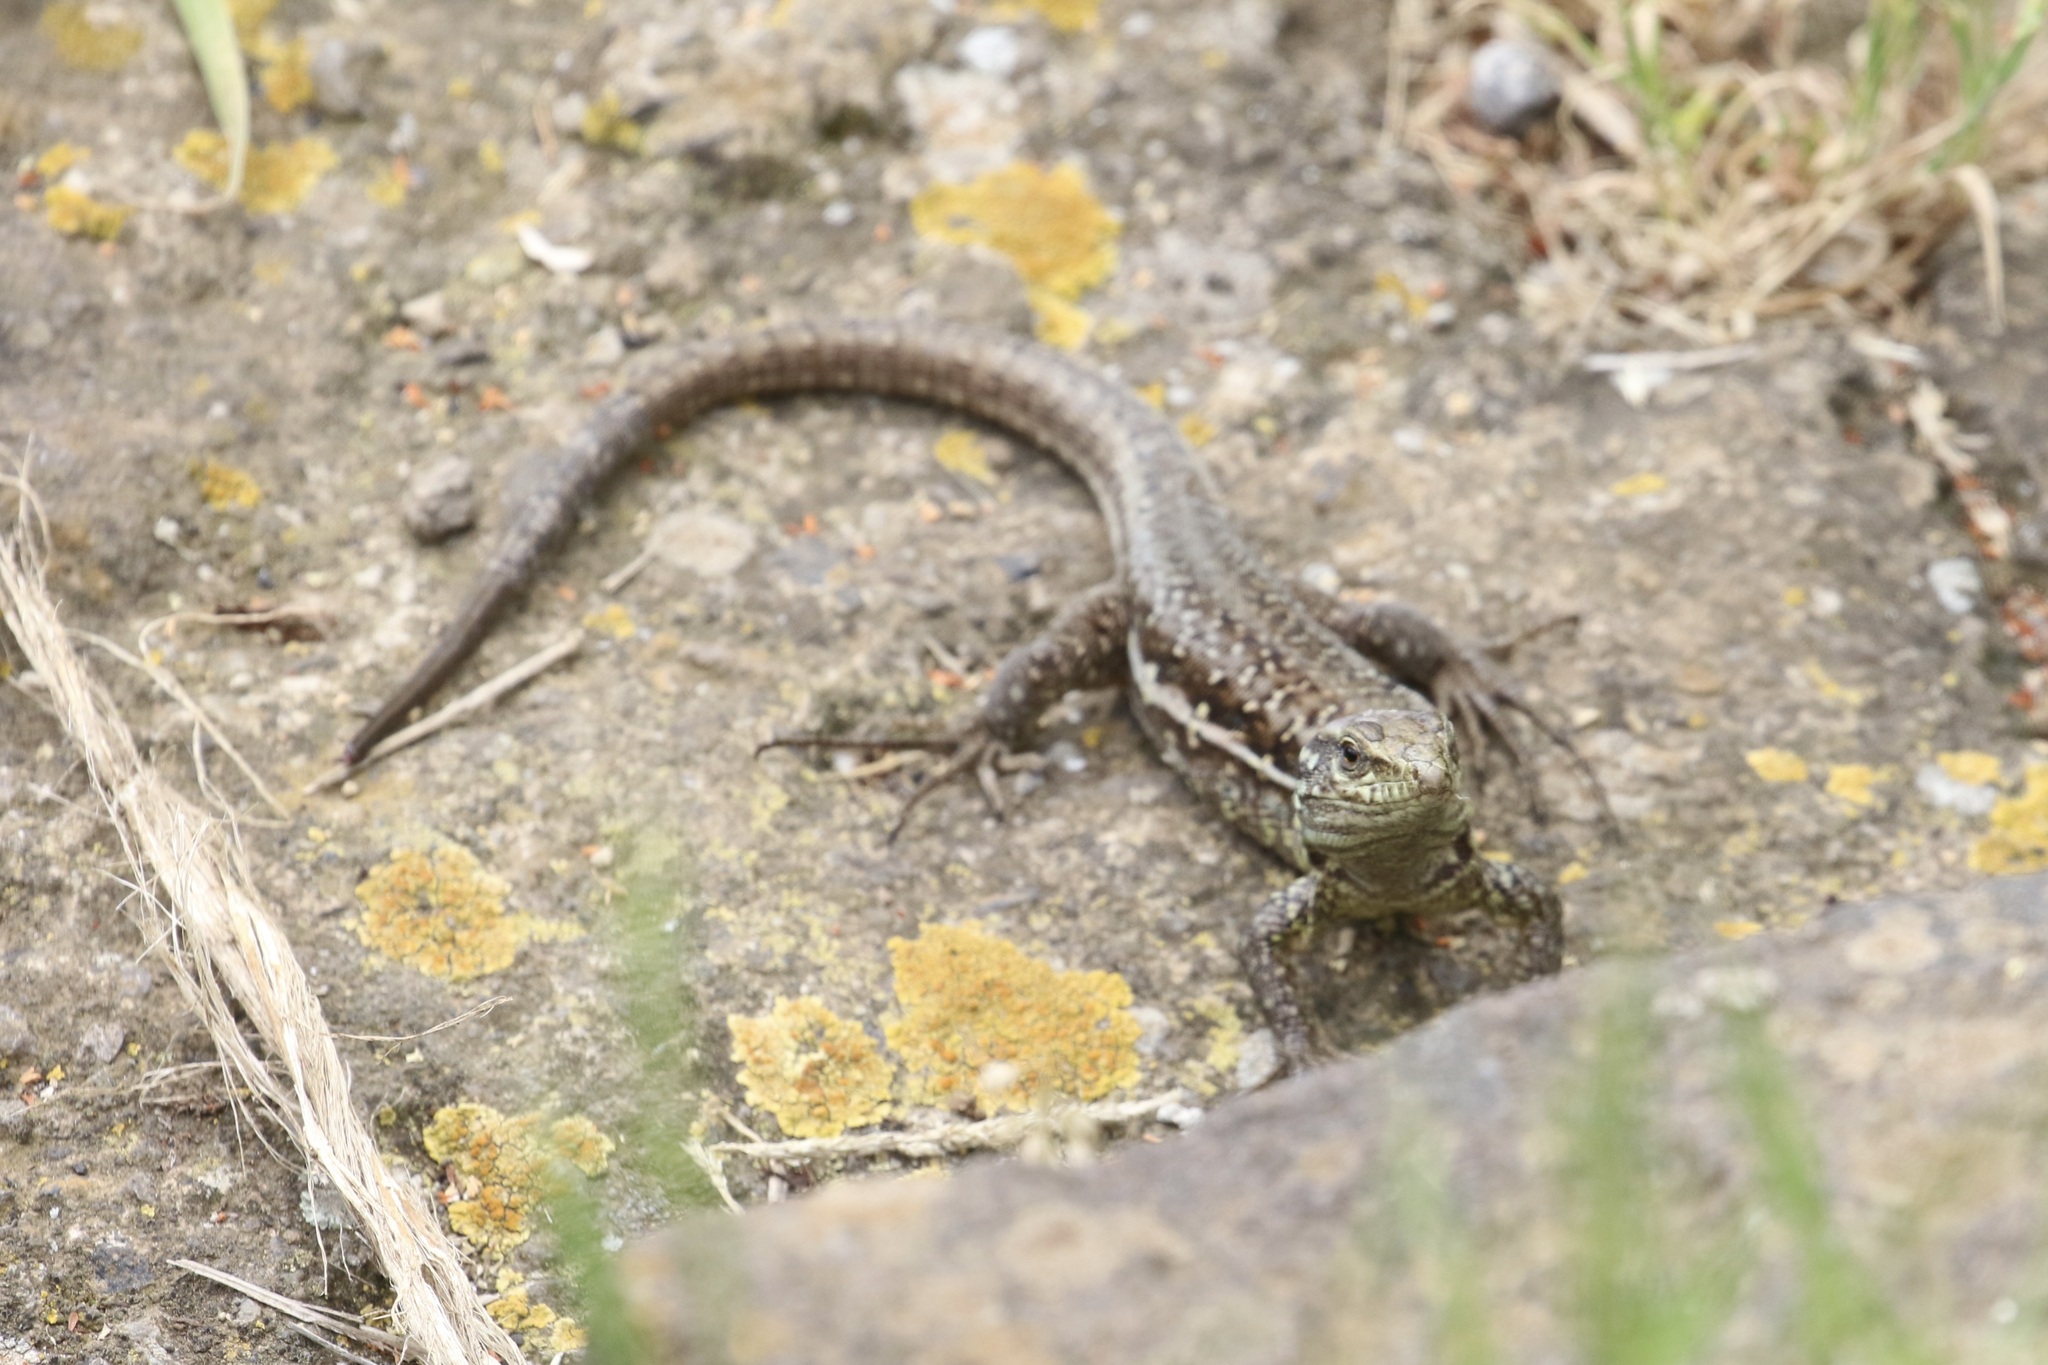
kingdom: Animalia
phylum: Chordata
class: Squamata
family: Lacertidae
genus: Gallotia
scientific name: Gallotia galloti
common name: Gallot's lizard
